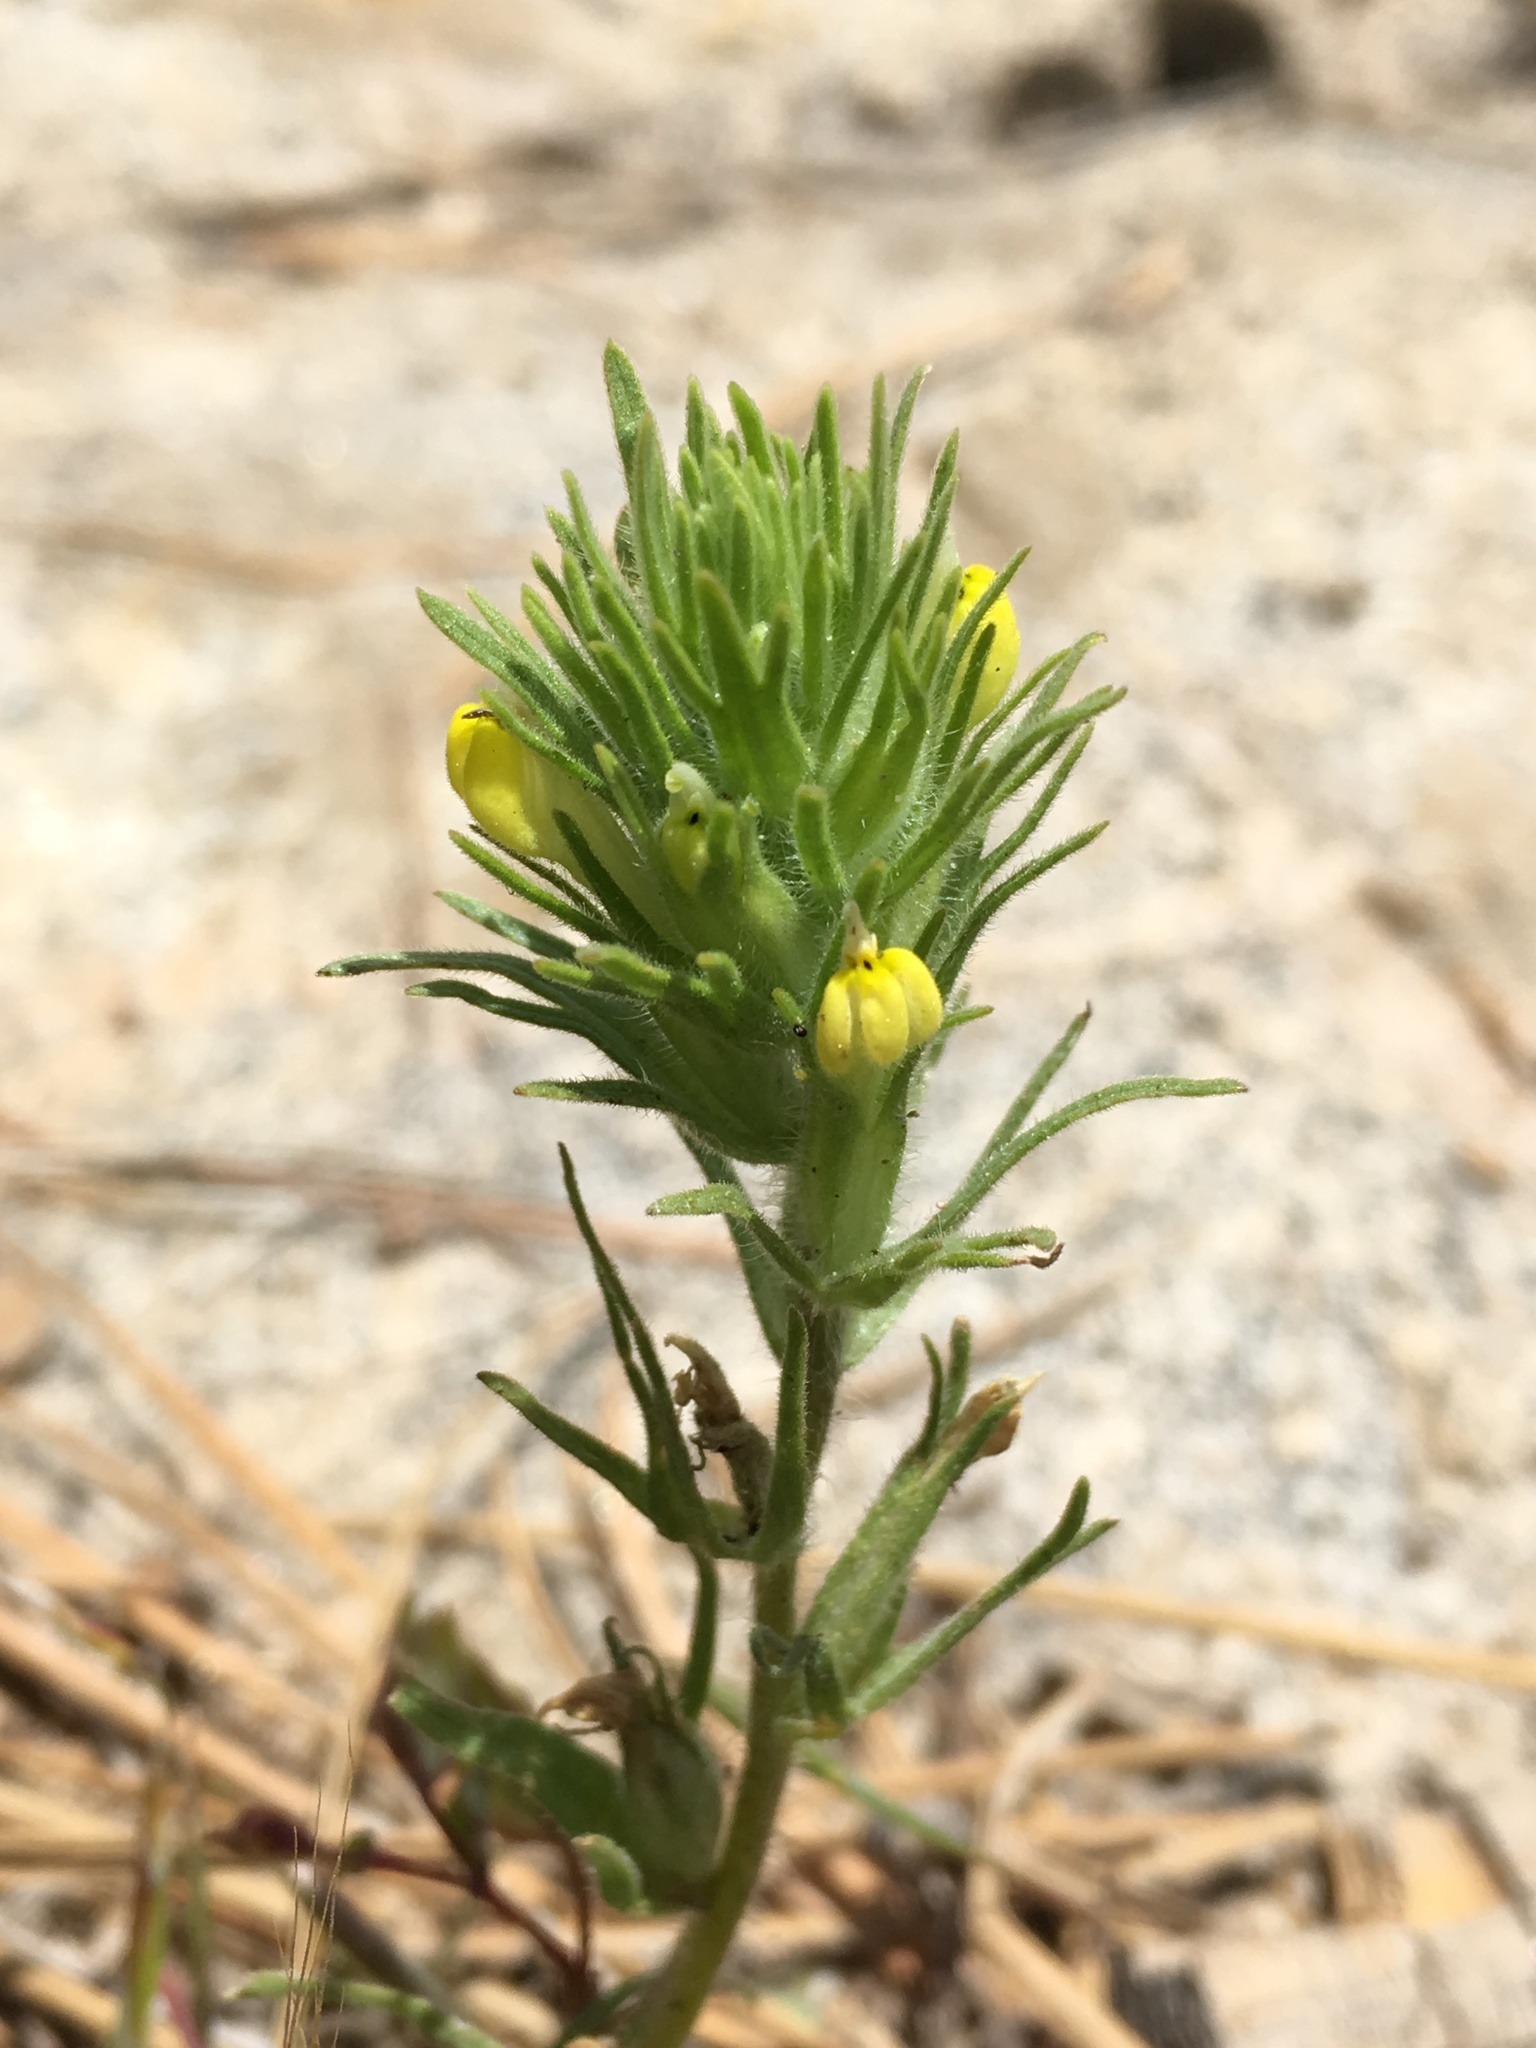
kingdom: Plantae
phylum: Tracheophyta
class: Magnoliopsida
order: Lamiales
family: Orobanchaceae
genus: Castilleja
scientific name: Castilleja tenuis
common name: Hairy indian paintbrush
